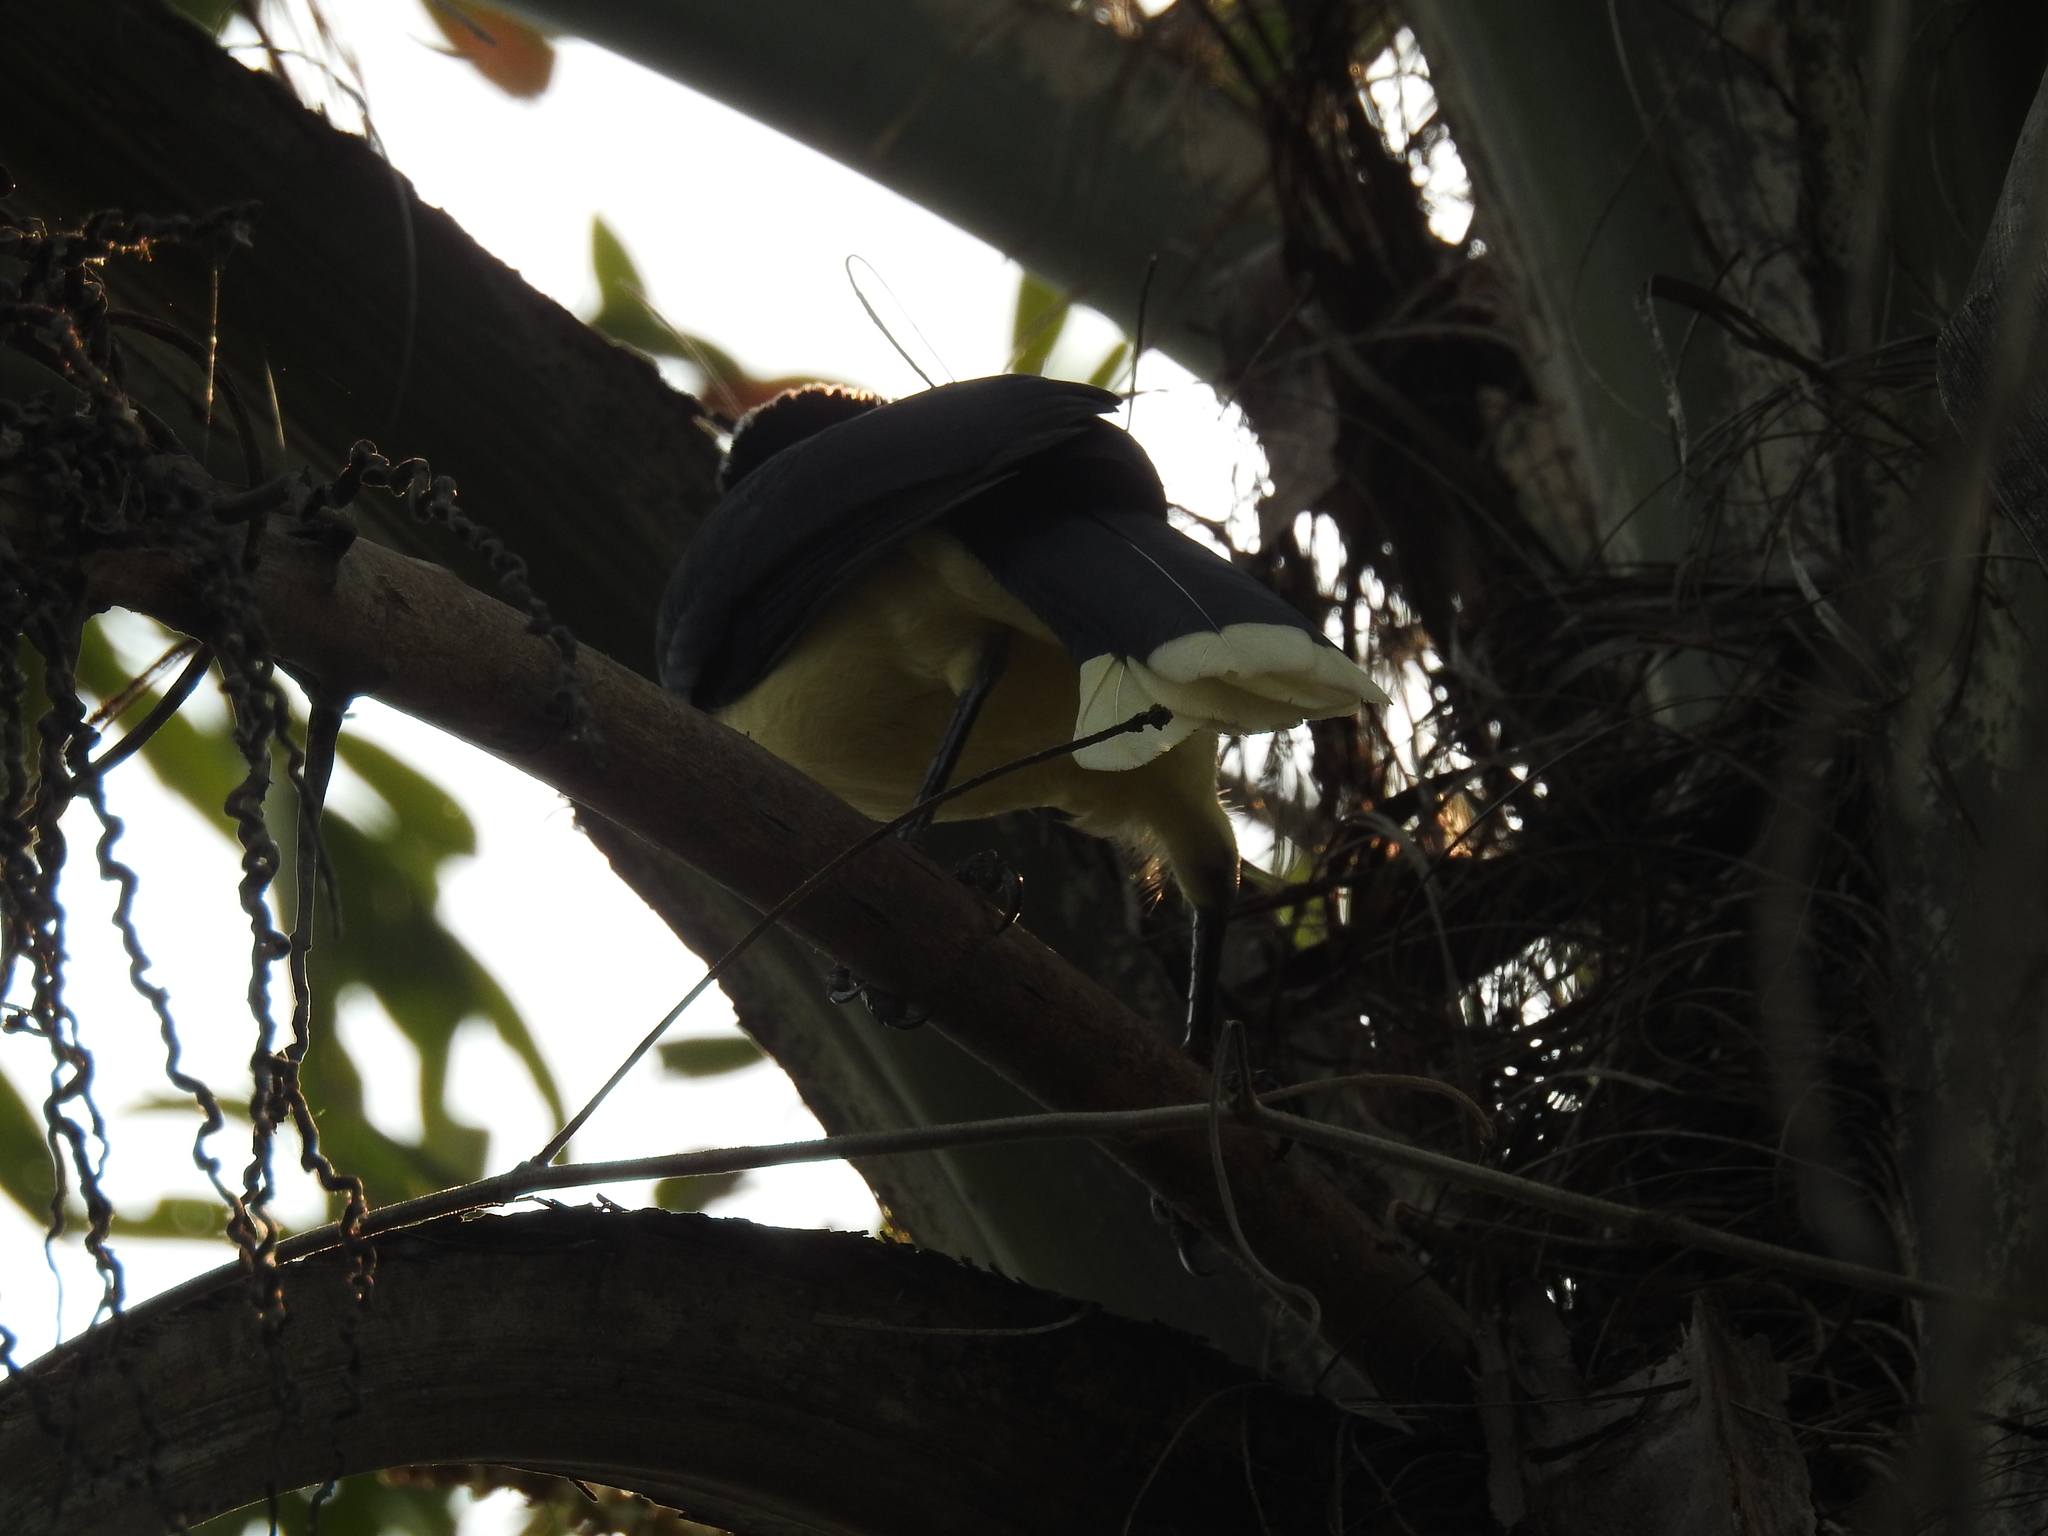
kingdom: Animalia
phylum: Chordata
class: Aves
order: Passeriformes
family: Corvidae
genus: Cyanocorax
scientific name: Cyanocorax chrysops
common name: Plush-crested jay
